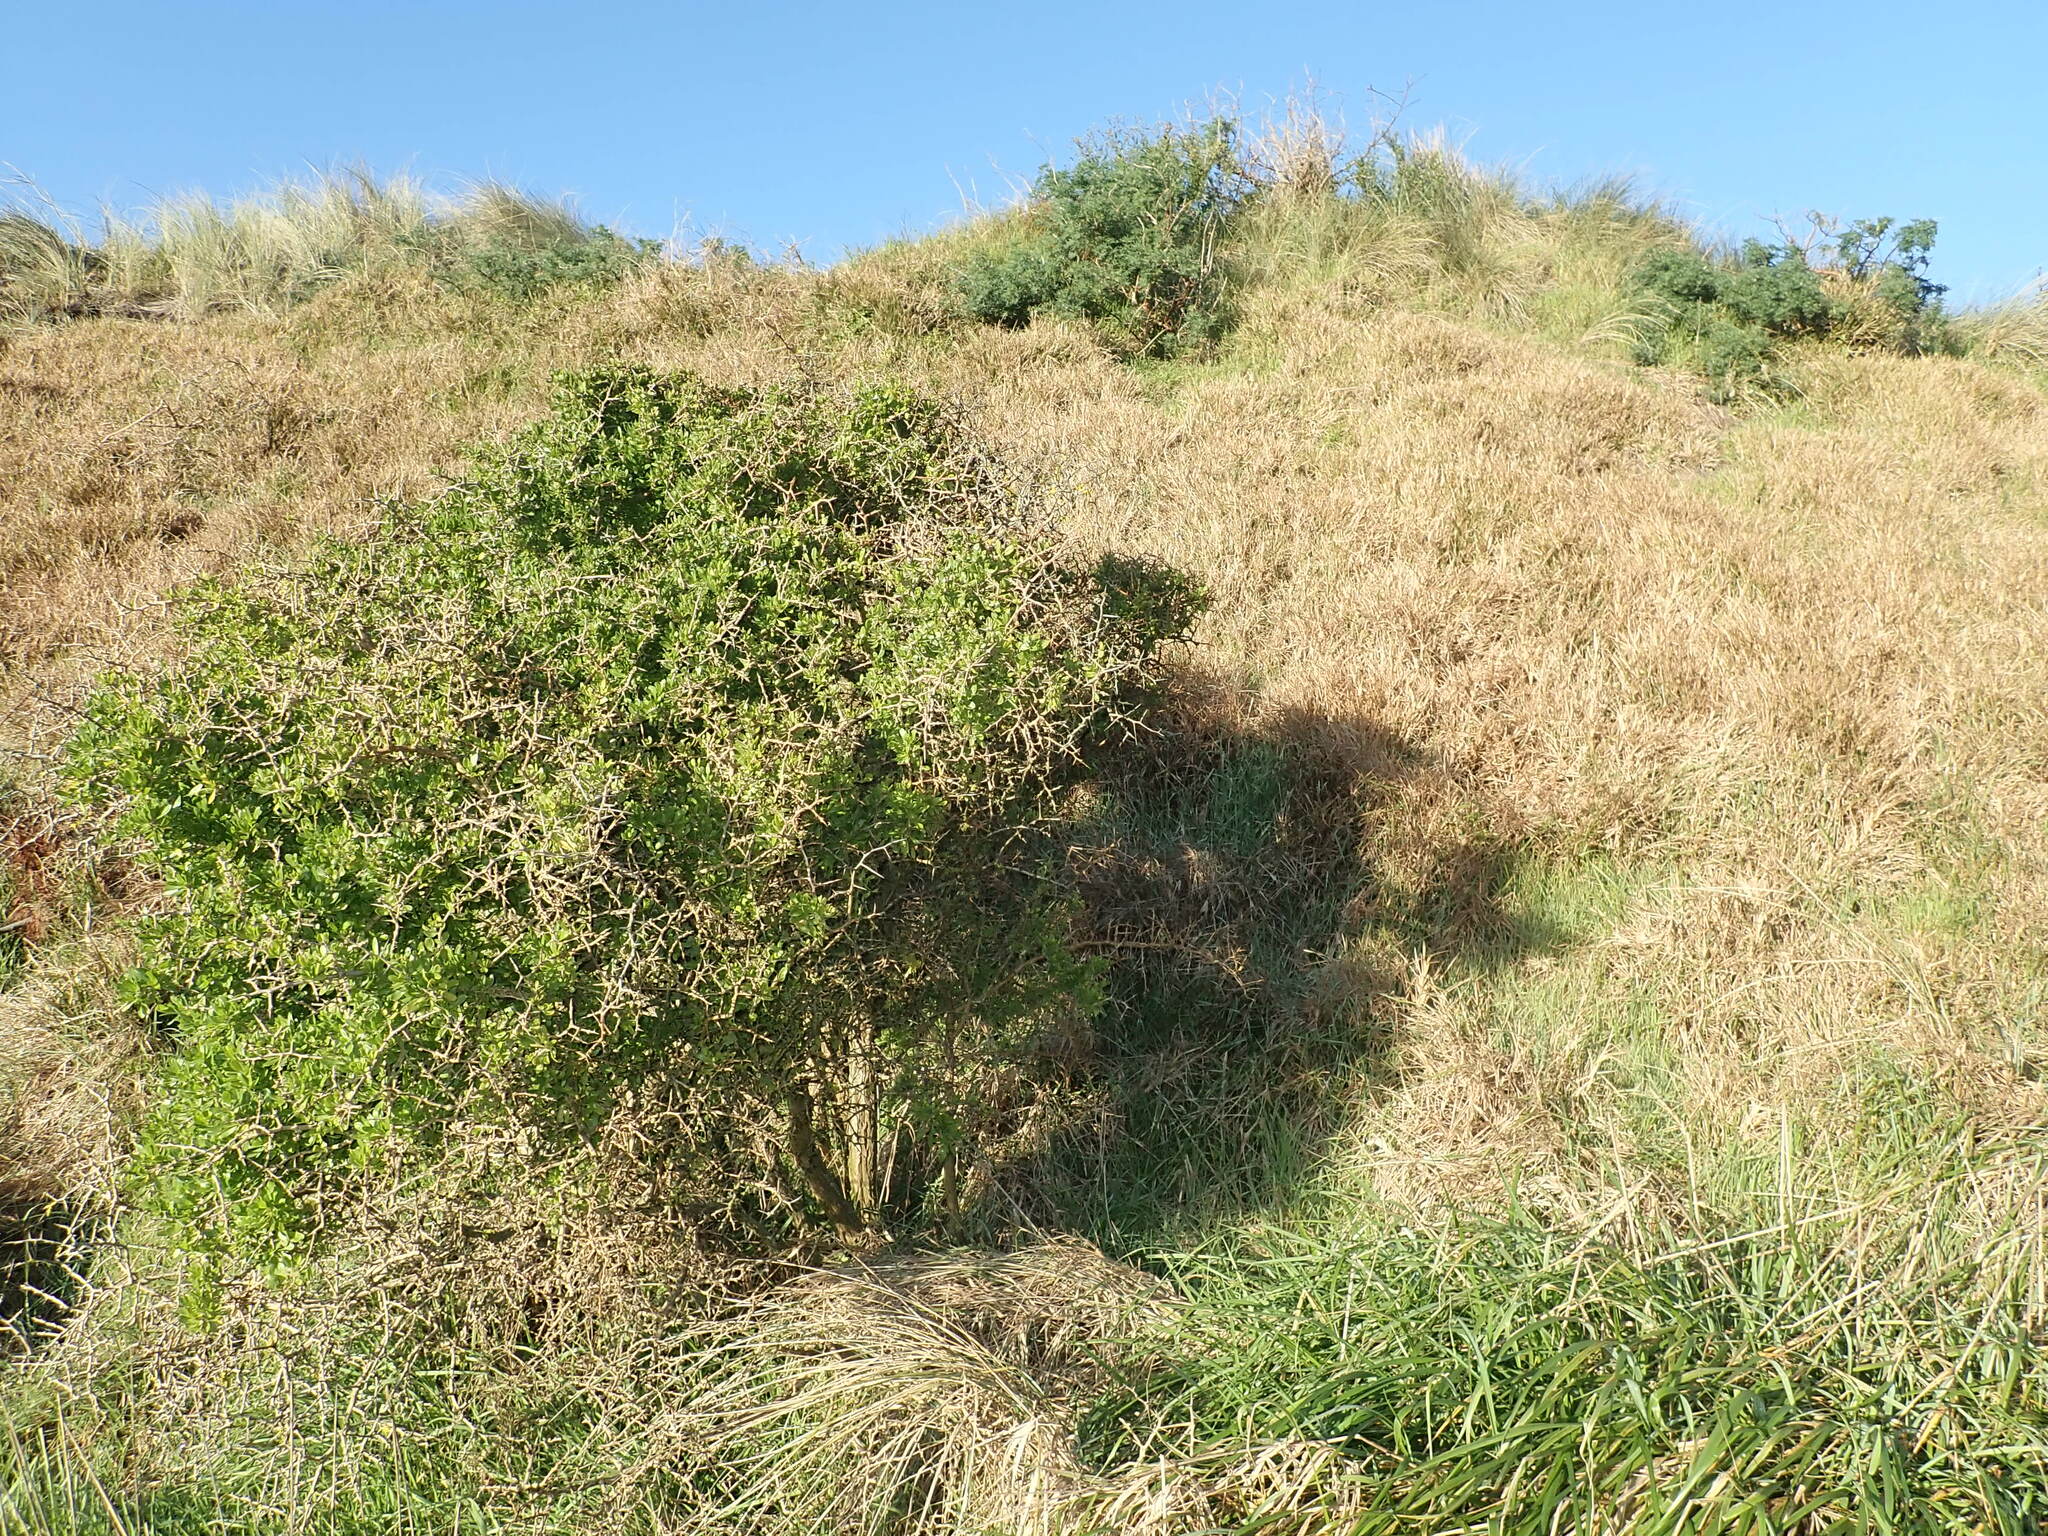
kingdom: Plantae
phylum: Tracheophyta
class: Magnoliopsida
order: Solanales
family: Solanaceae
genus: Lycium
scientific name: Lycium ferocissimum
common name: African boxthorn
